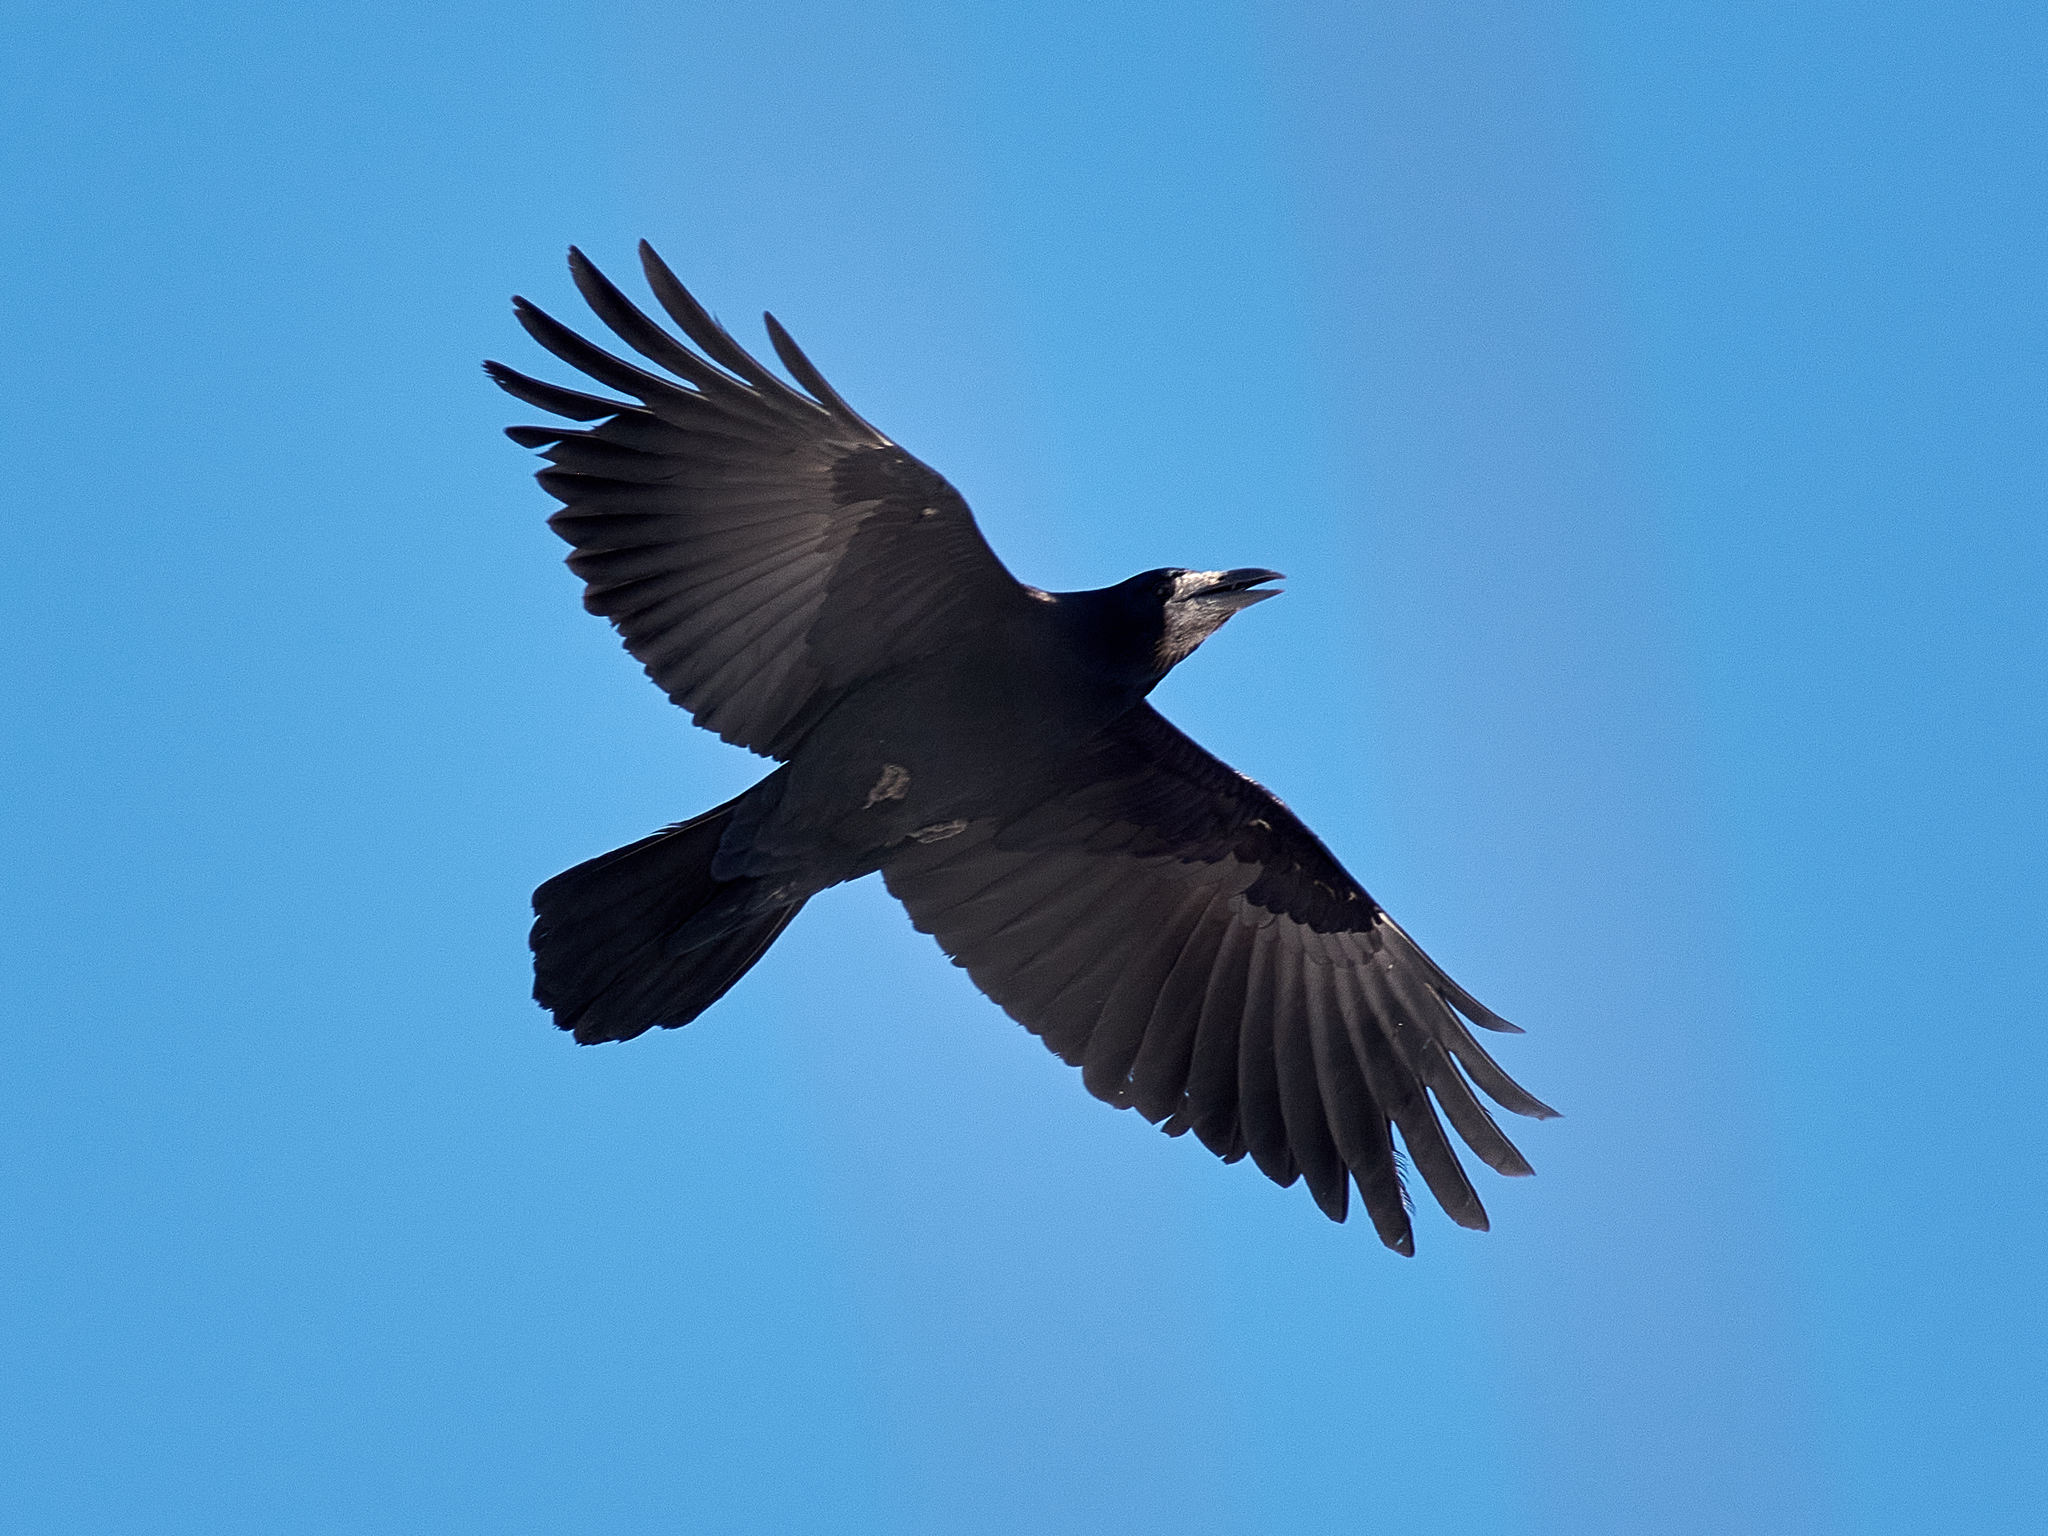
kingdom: Animalia
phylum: Chordata
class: Aves
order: Passeriformes
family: Corvidae
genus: Corvus
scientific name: Corvus frugilegus
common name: Rook
